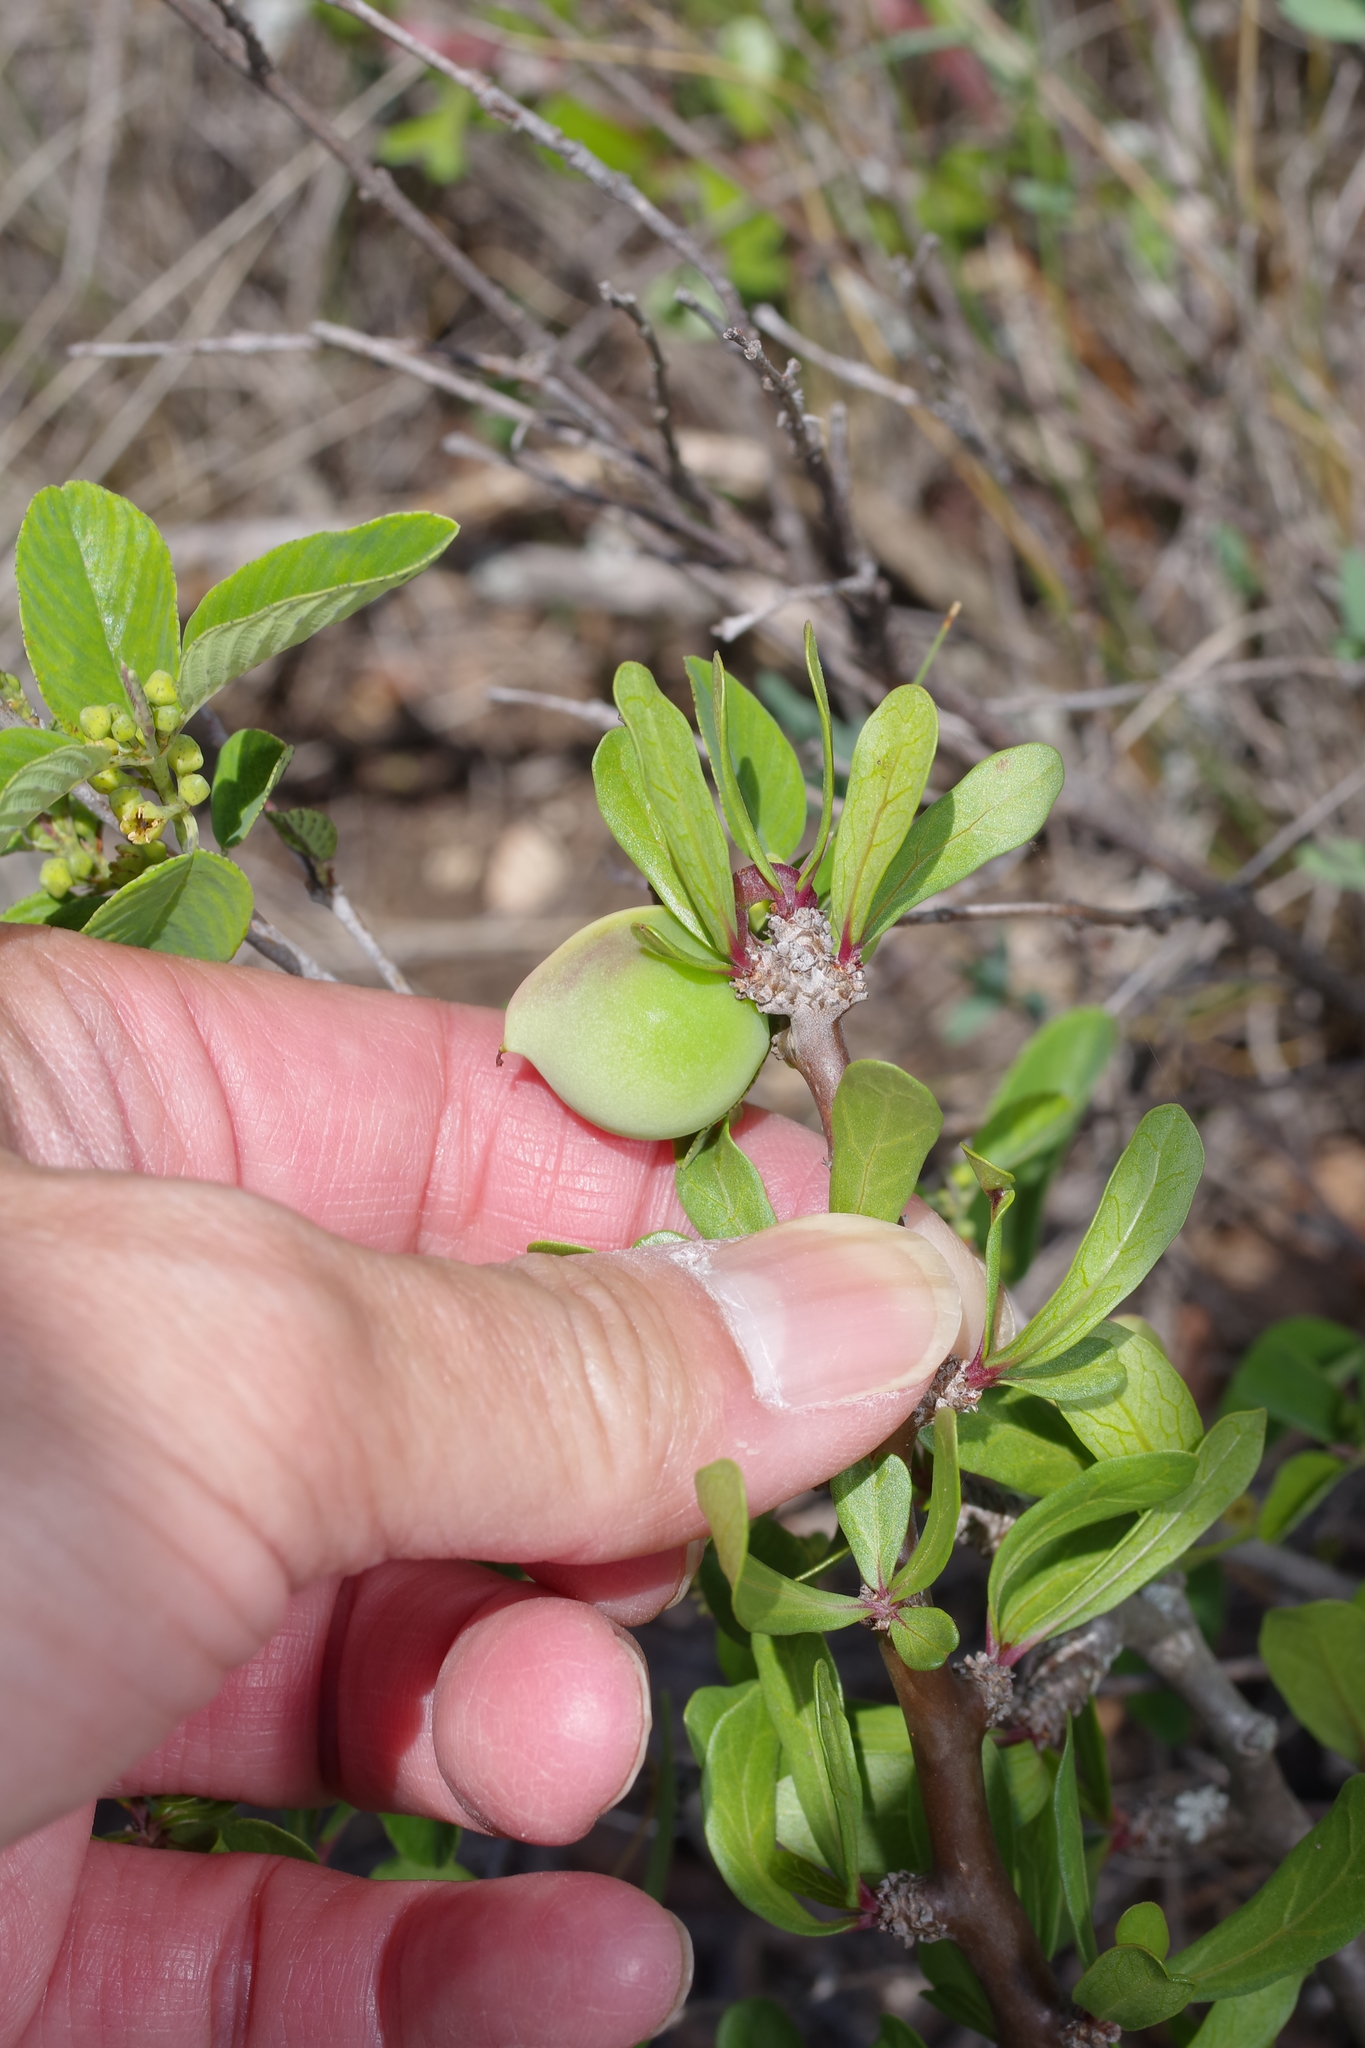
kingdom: Plantae
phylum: Tracheophyta
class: Magnoliopsida
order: Malpighiales
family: Euphorbiaceae
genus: Jatropha
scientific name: Jatropha dioica
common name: Leatherstem
